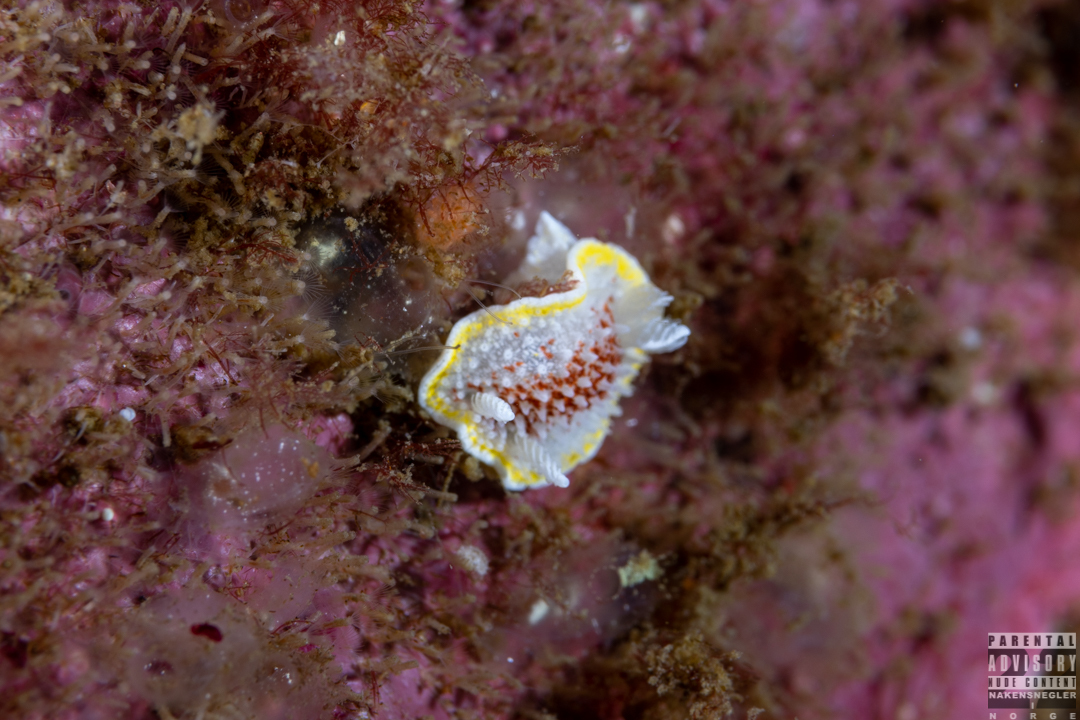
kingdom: Animalia
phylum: Mollusca
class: Gastropoda
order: Nudibranchia
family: Calycidorididae
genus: Diaphorodoris
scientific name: Diaphorodoris luteocincta
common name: Fried egg nudibranch
